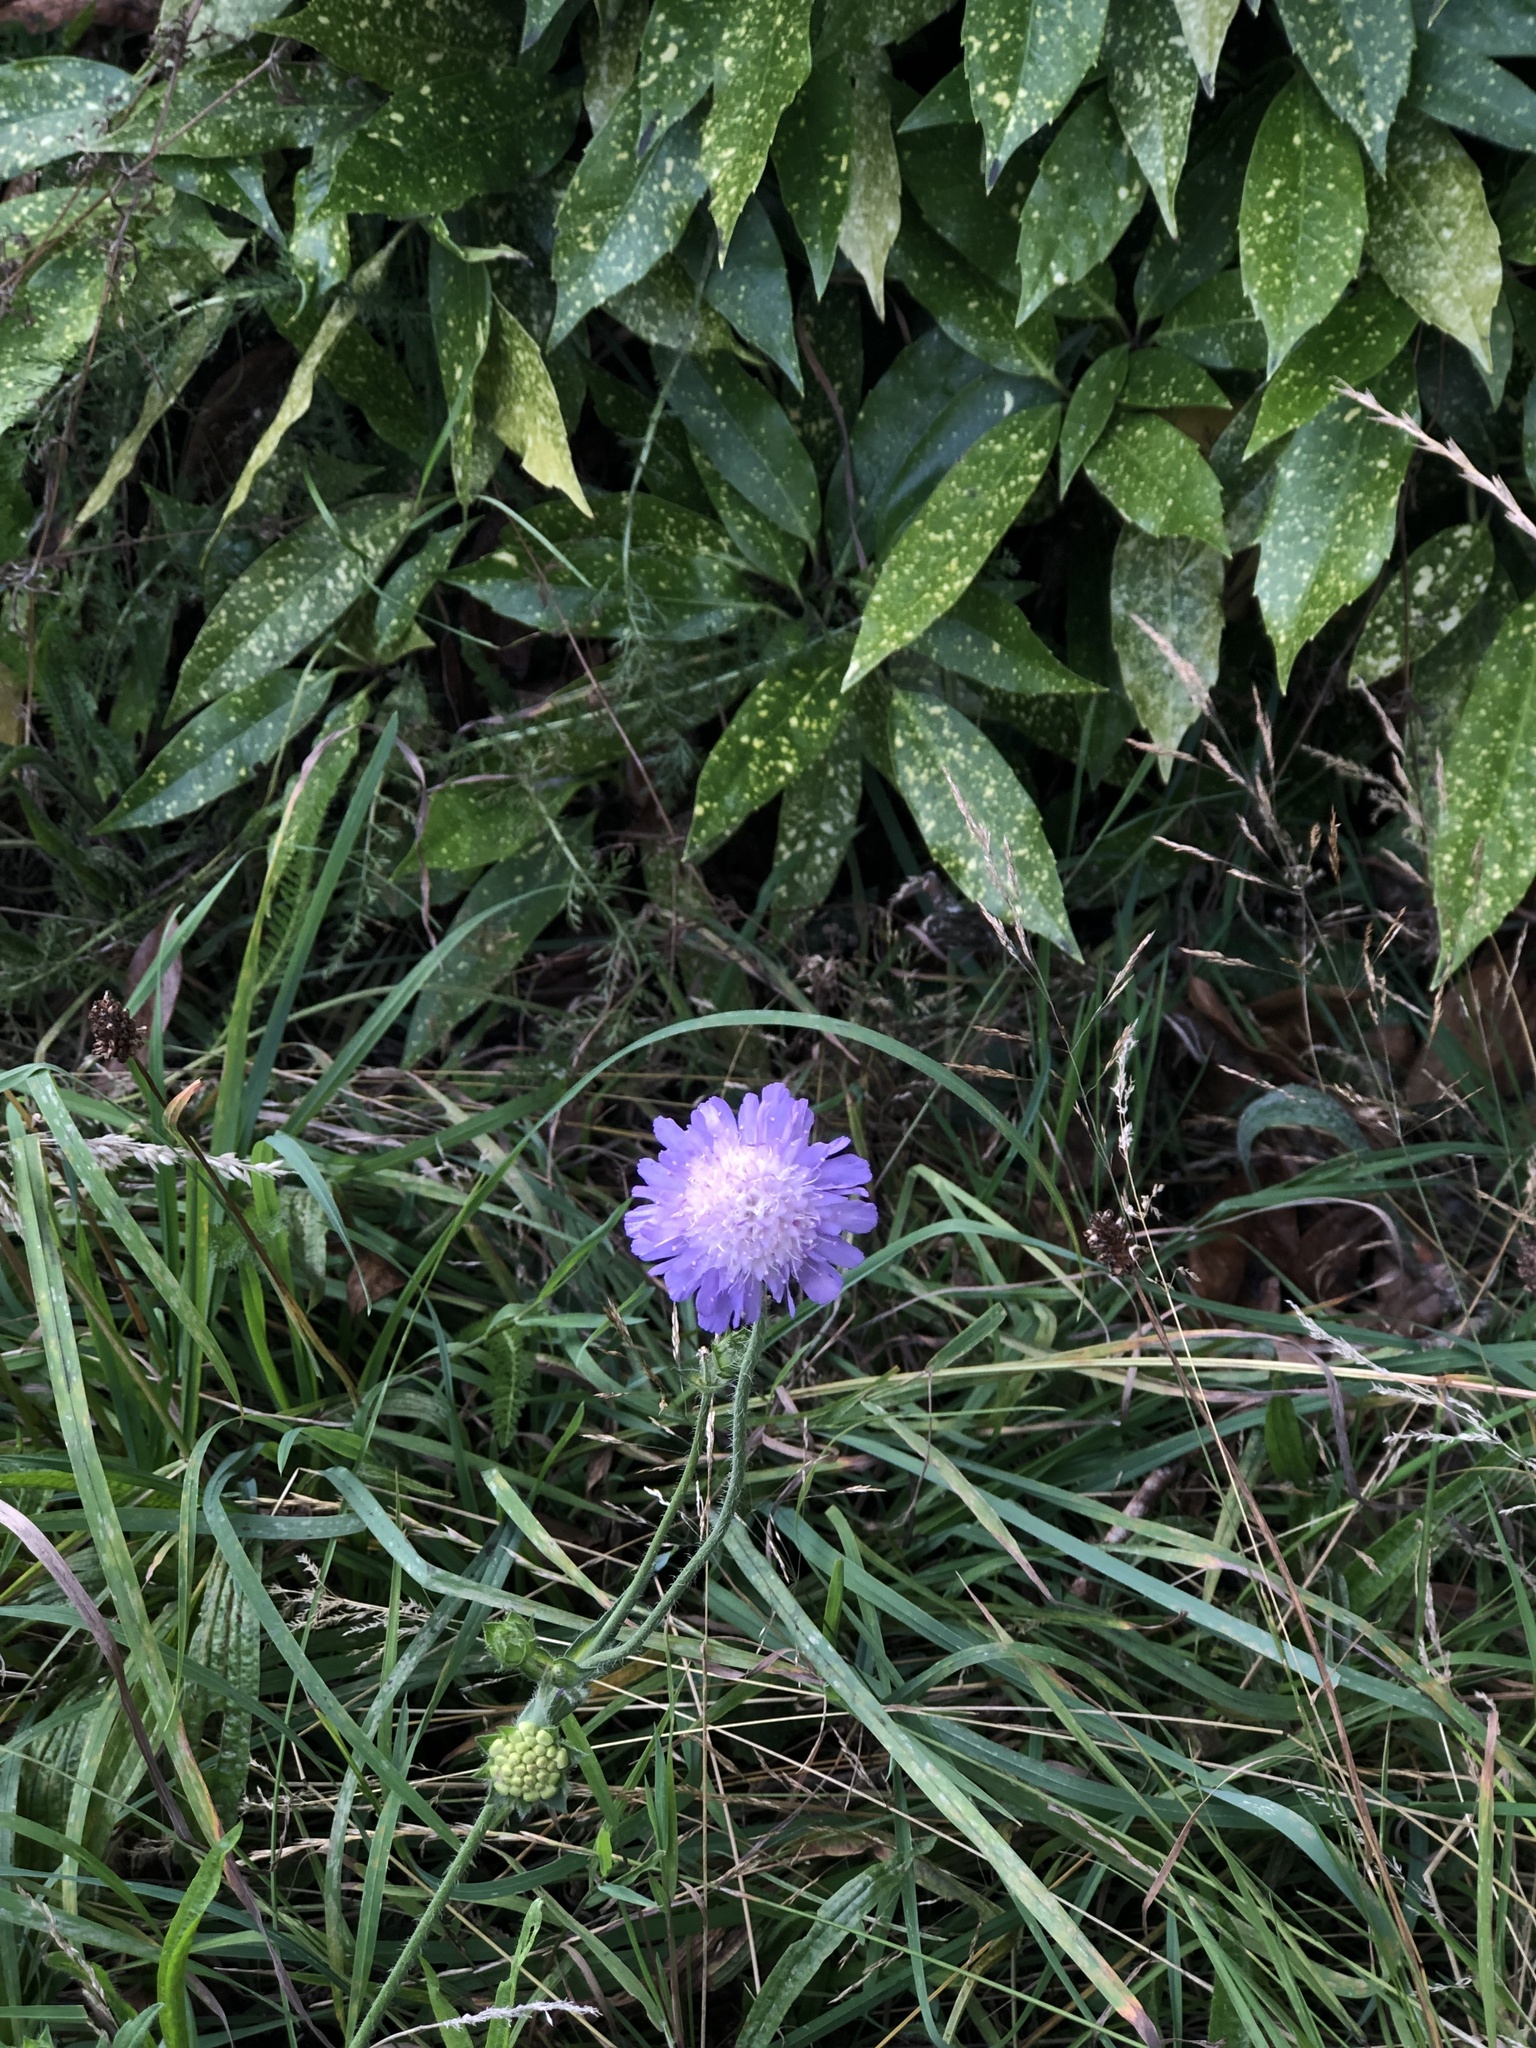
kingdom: Plantae
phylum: Tracheophyta
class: Magnoliopsida
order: Dipsacales
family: Caprifoliaceae
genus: Knautia
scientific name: Knautia arvensis
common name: Field scabiosa
